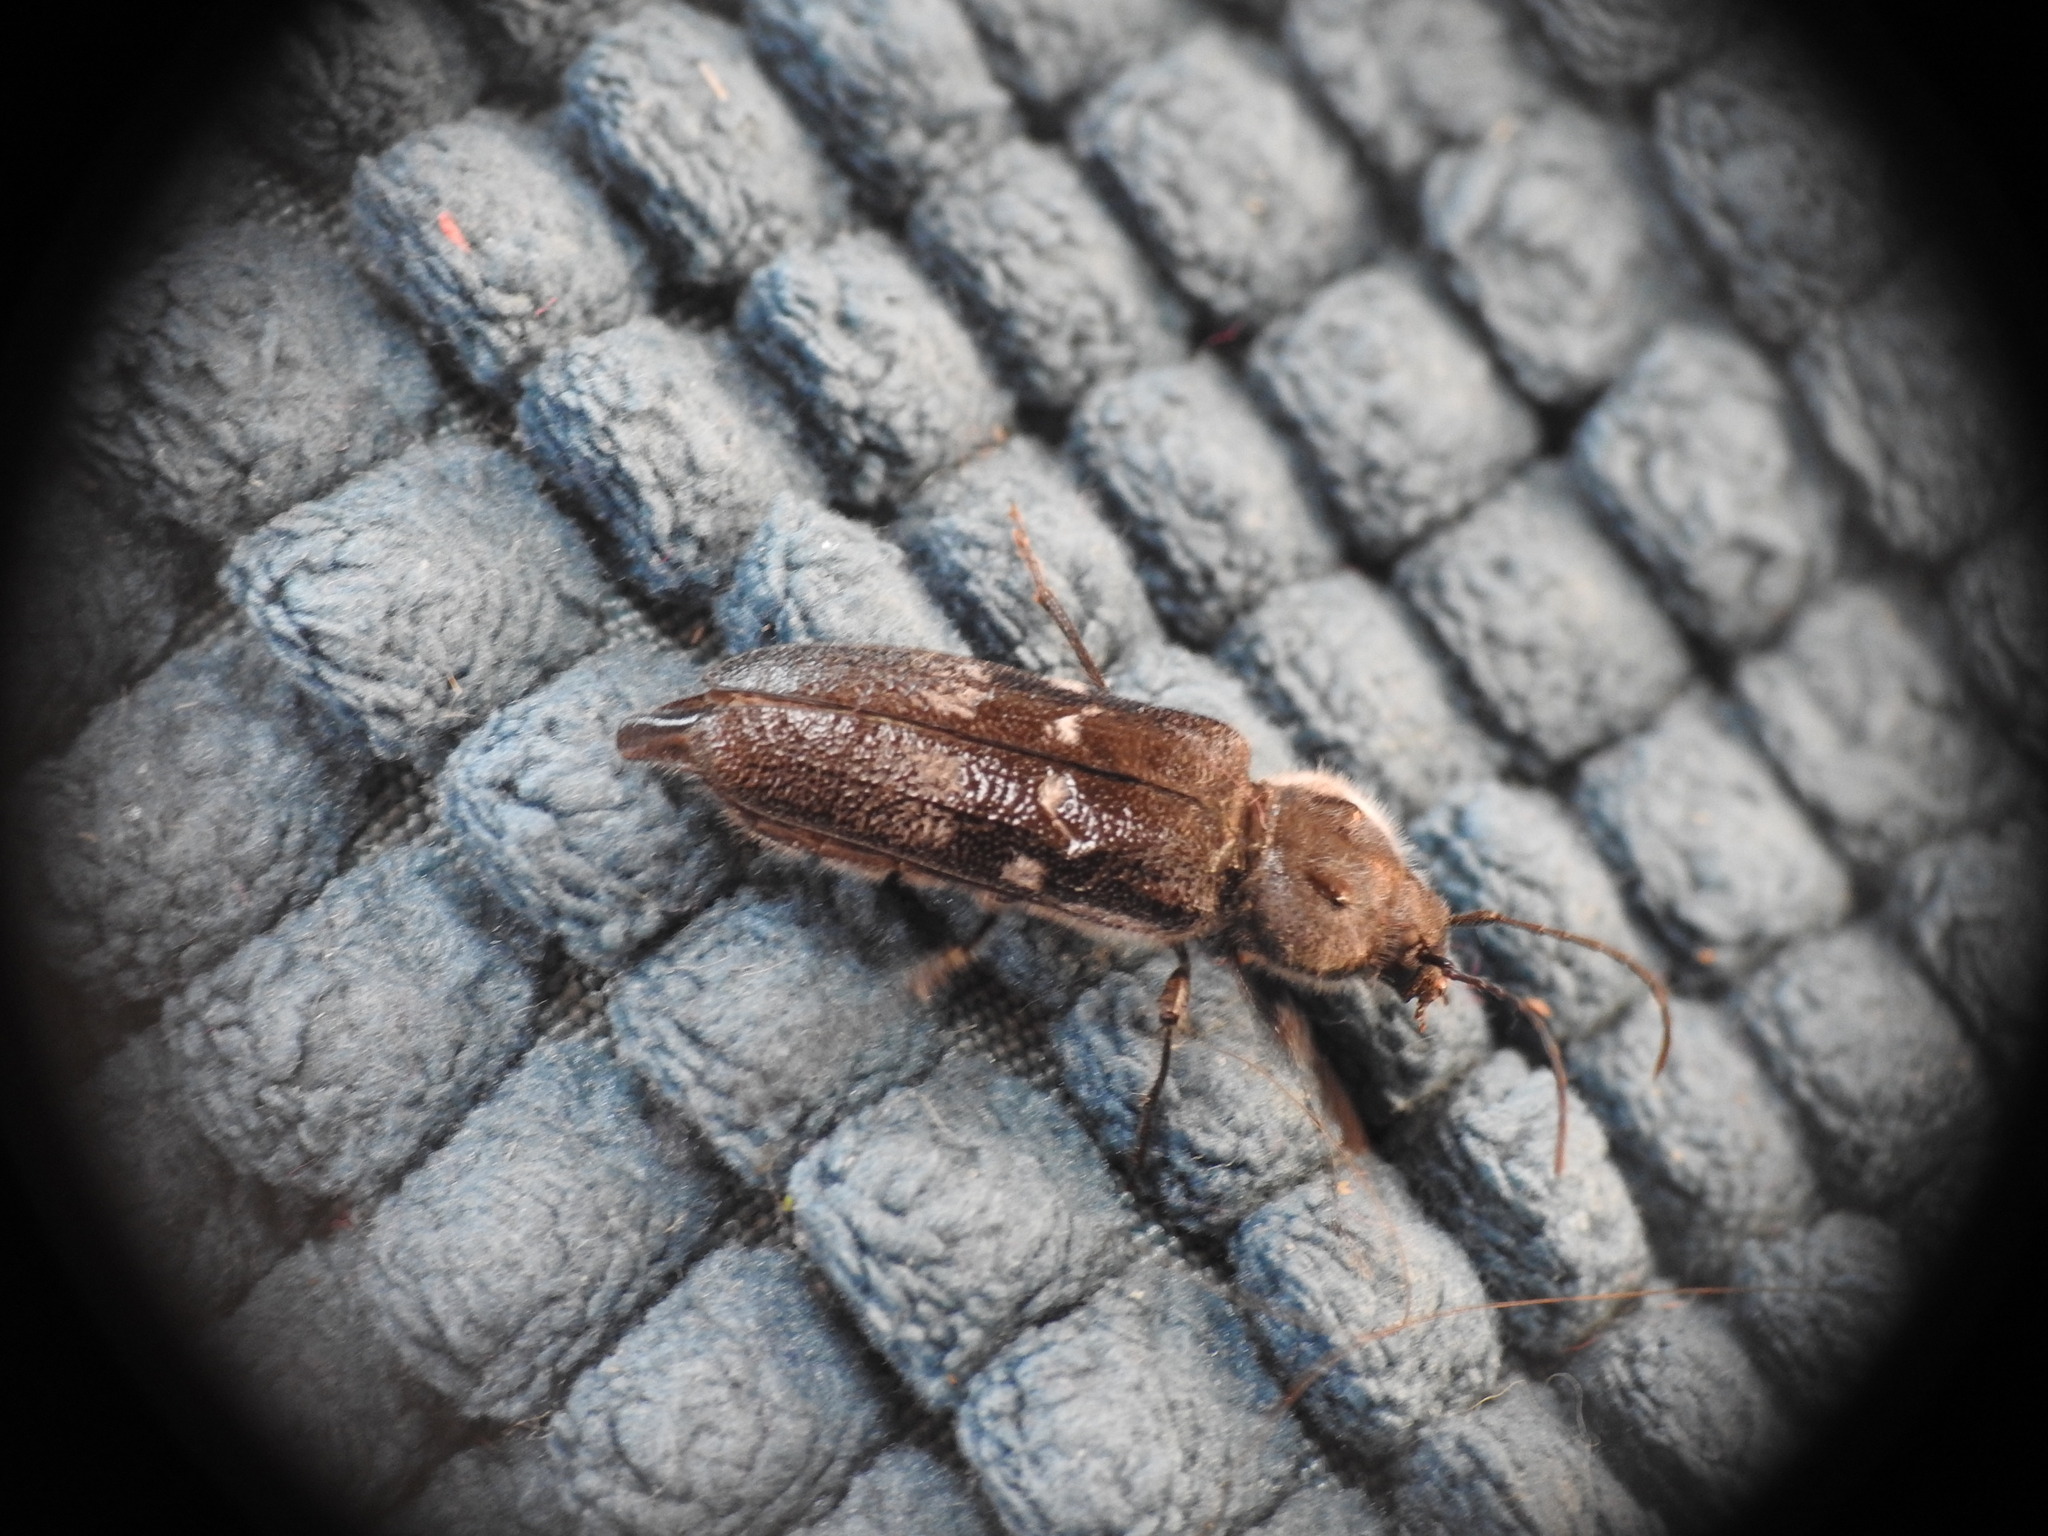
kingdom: Animalia
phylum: Arthropoda
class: Insecta
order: Coleoptera
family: Cerambycidae
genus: Hylotrupes
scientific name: Hylotrupes bajulus
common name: Old house borer
